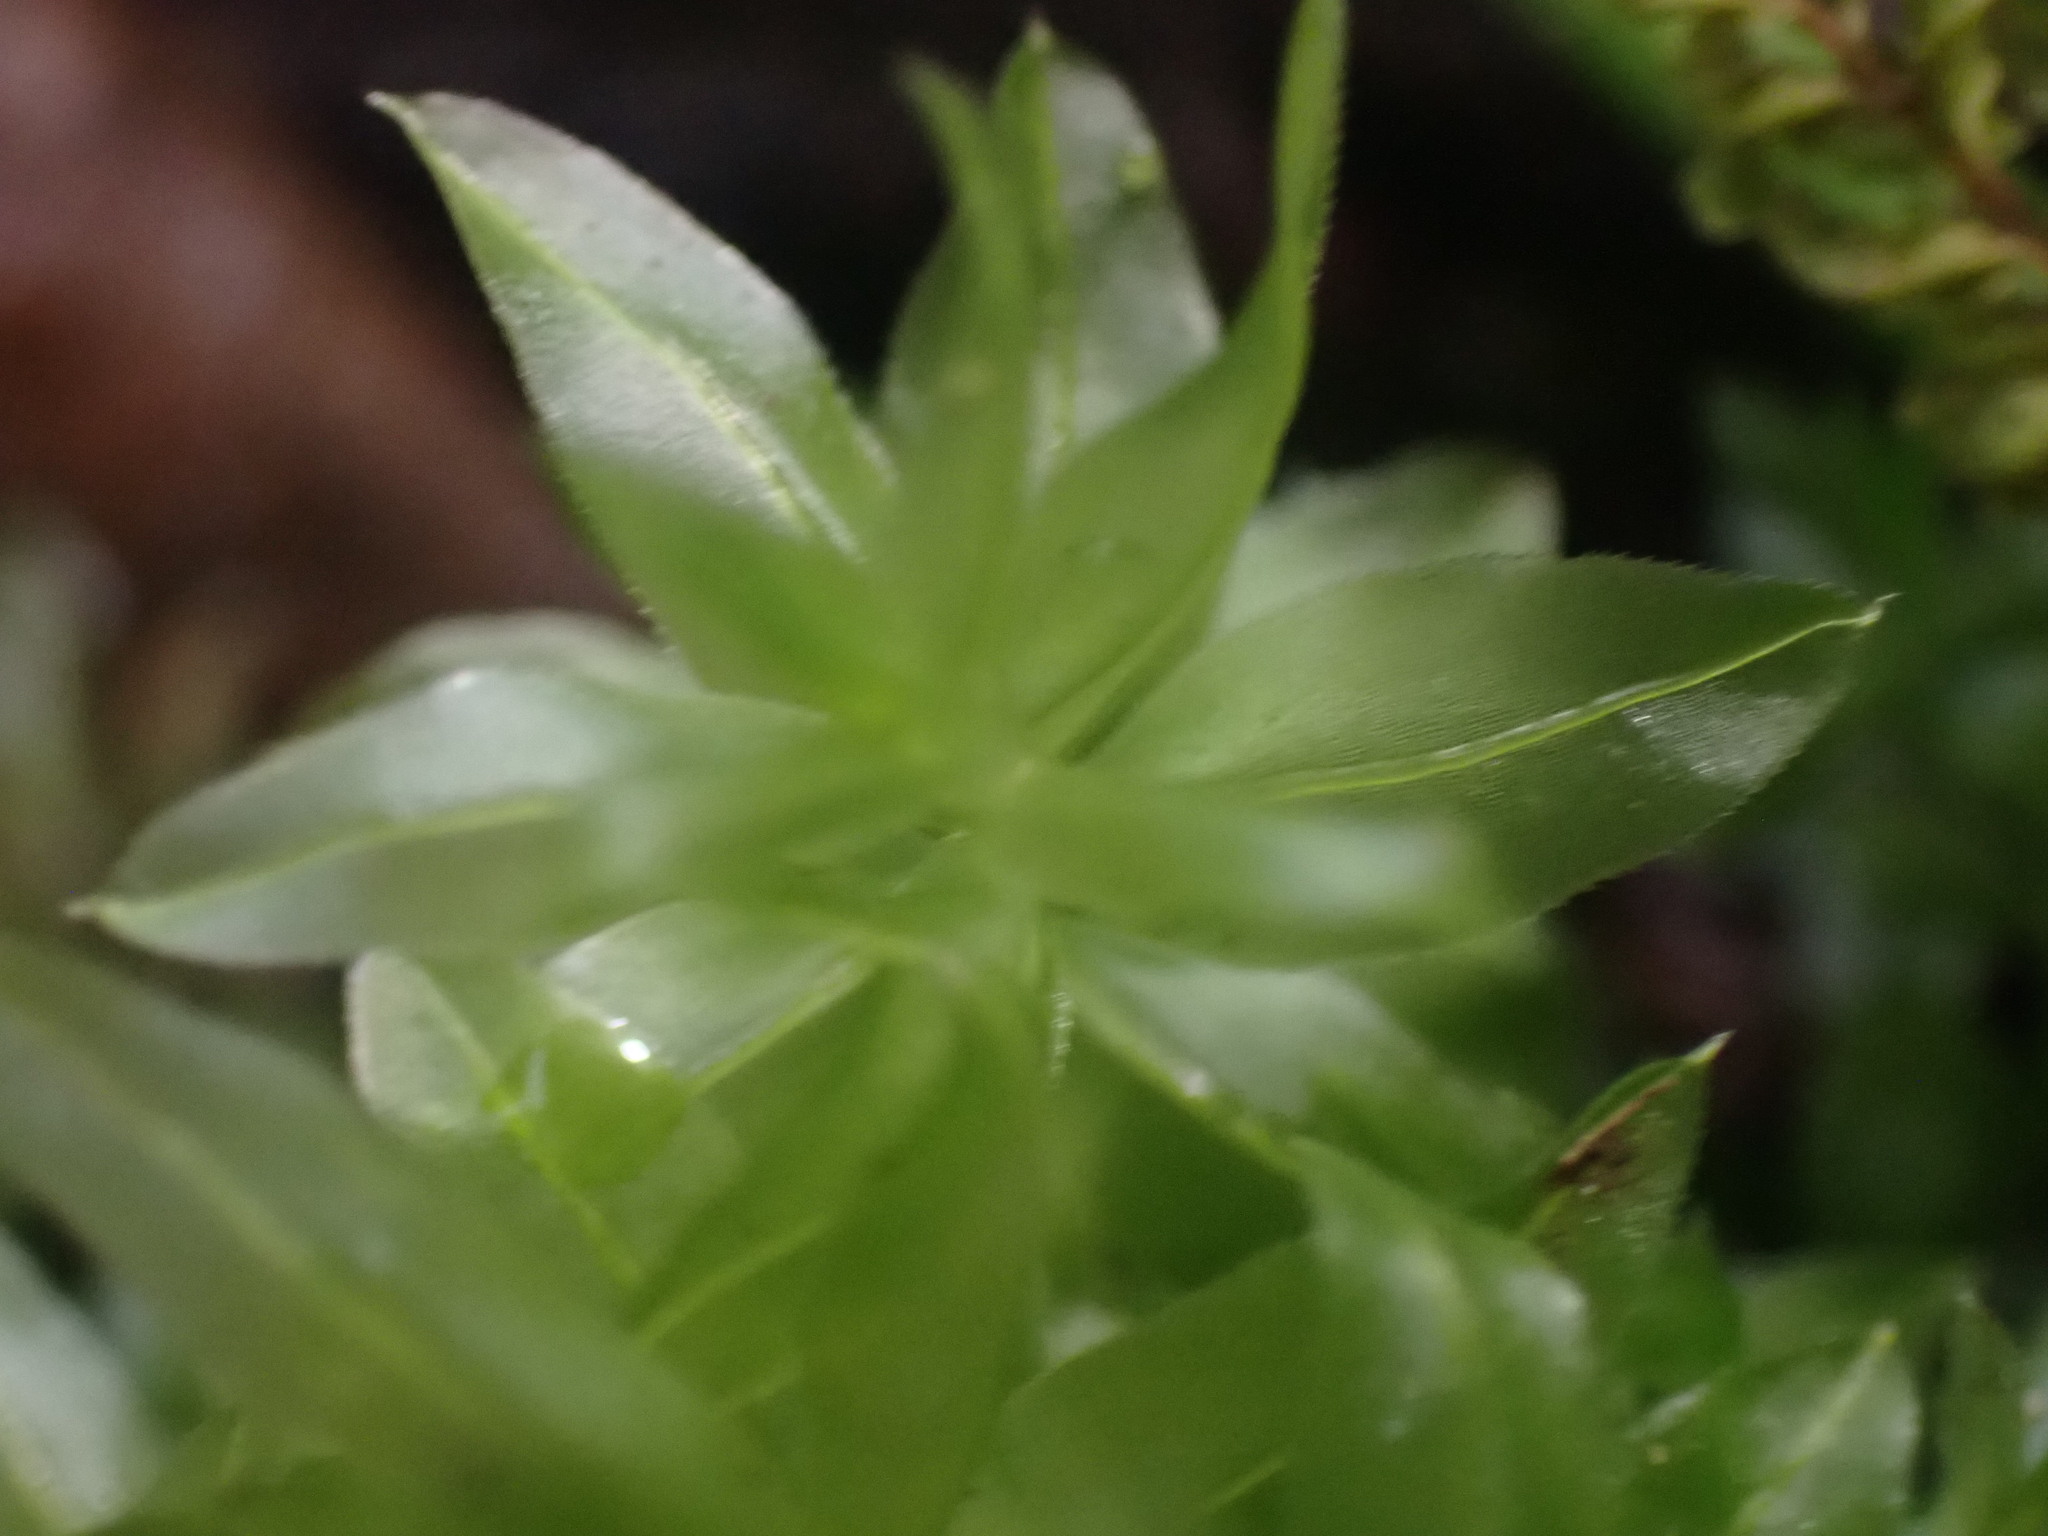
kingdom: Plantae
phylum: Bryophyta
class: Bryopsida
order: Bryales
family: Mniaceae
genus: Plagiomnium
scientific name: Plagiomnium insigne
